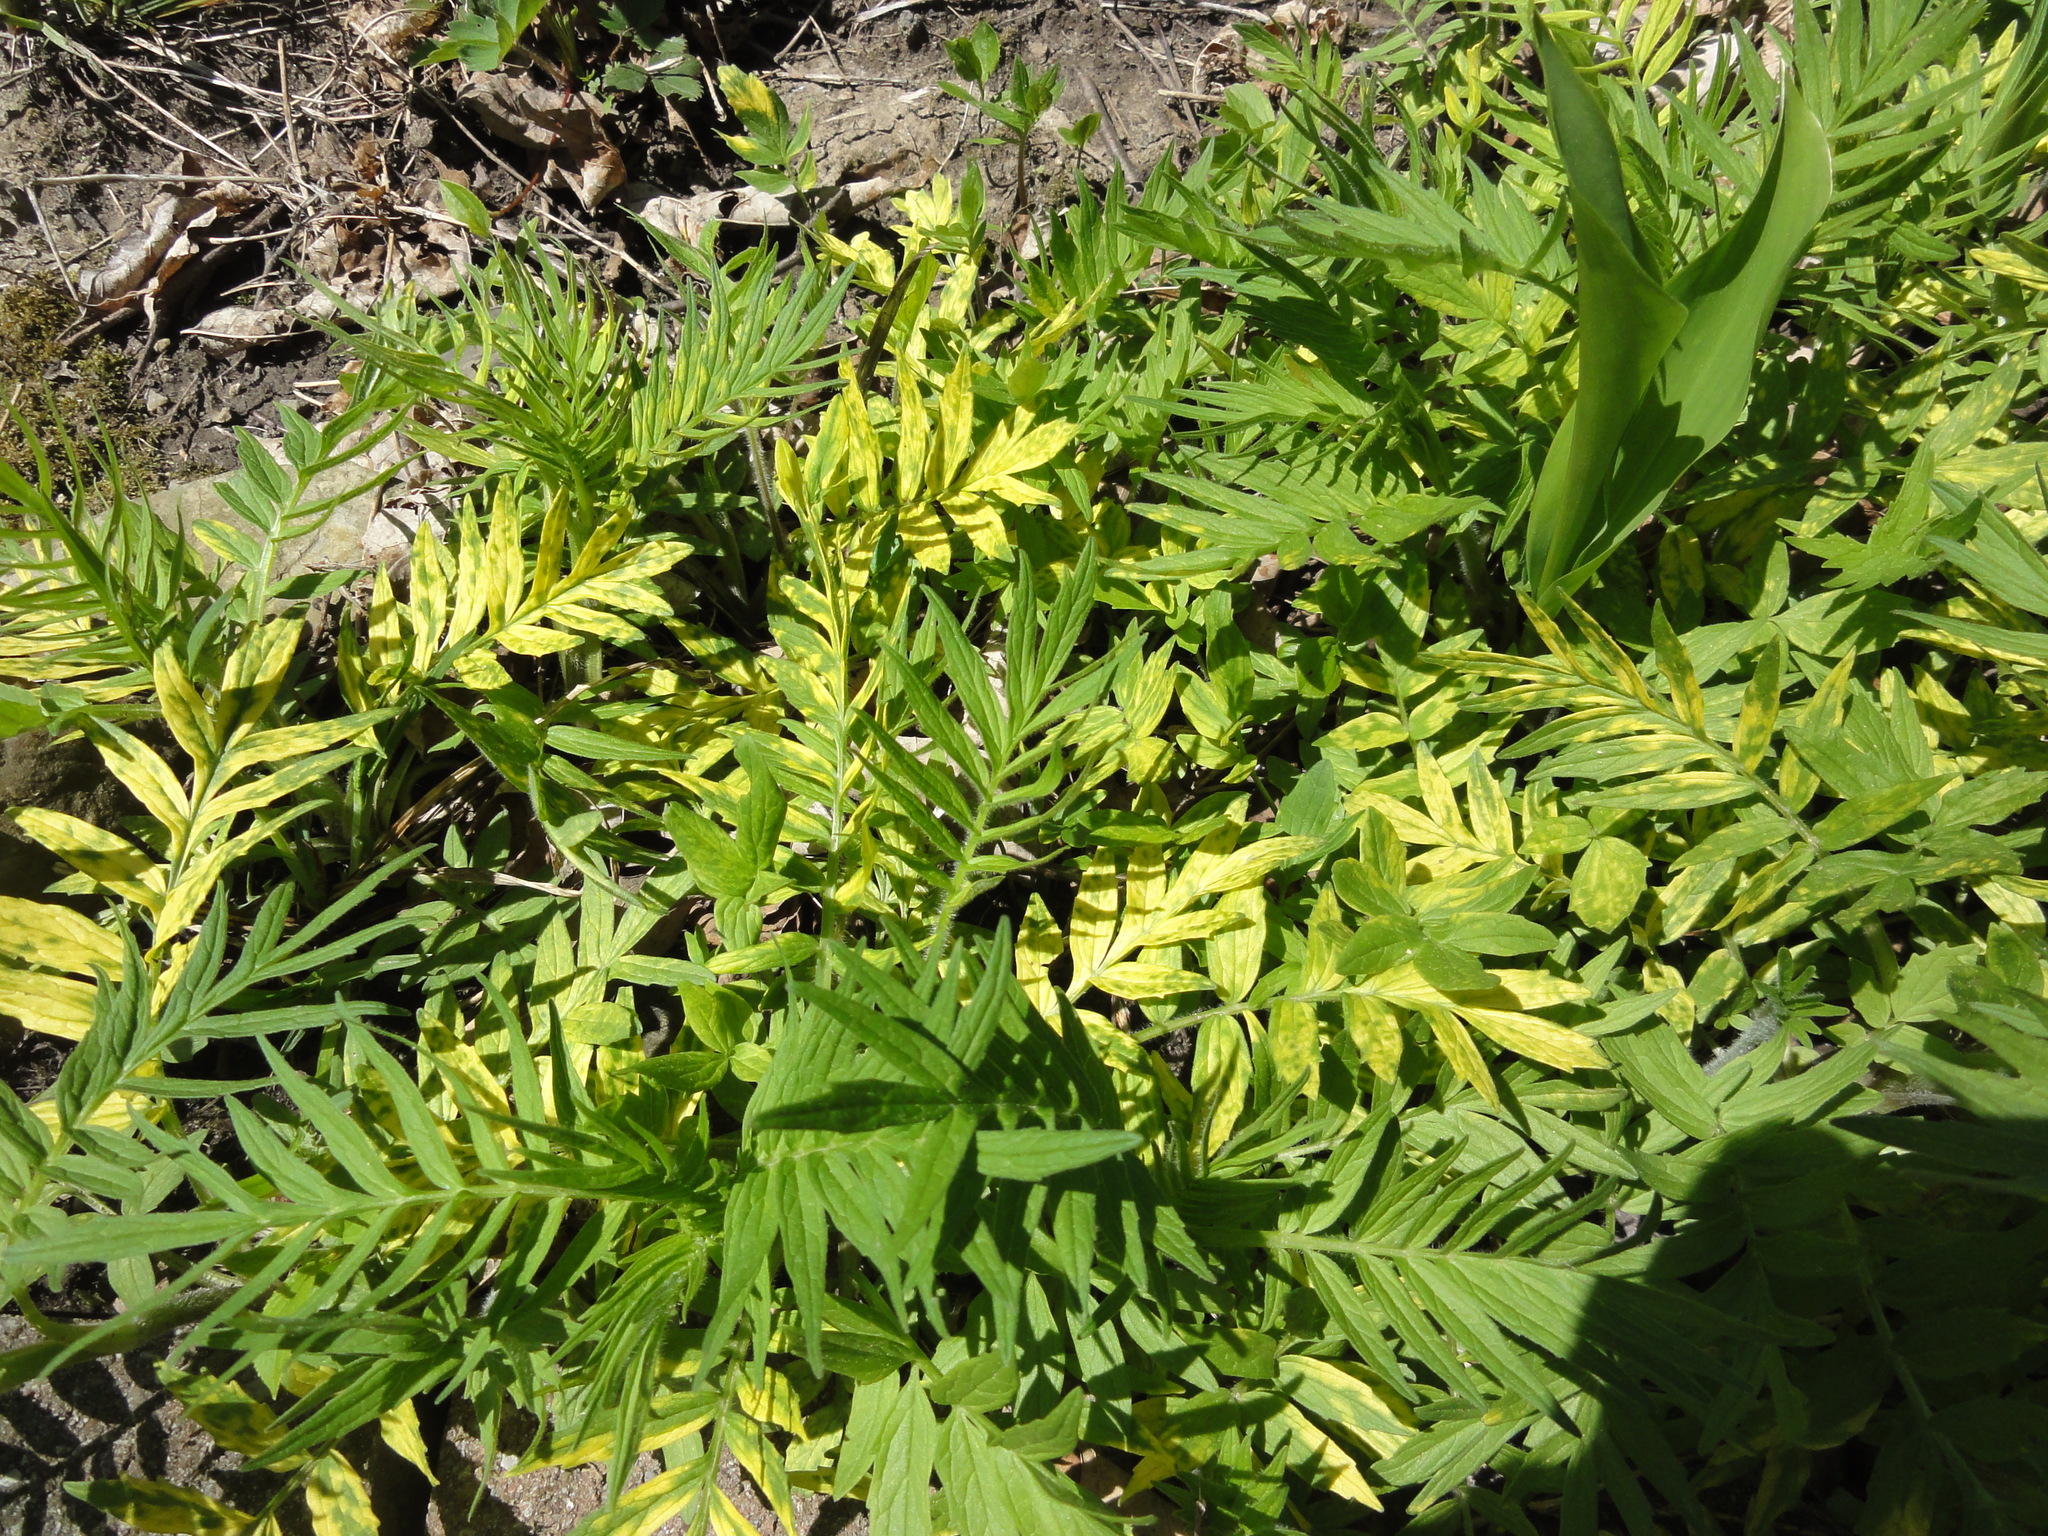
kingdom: Plantae
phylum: Tracheophyta
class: Magnoliopsida
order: Dipsacales
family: Caprifoliaceae
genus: Valeriana
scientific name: Valeriana officinalis
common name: Common valerian
